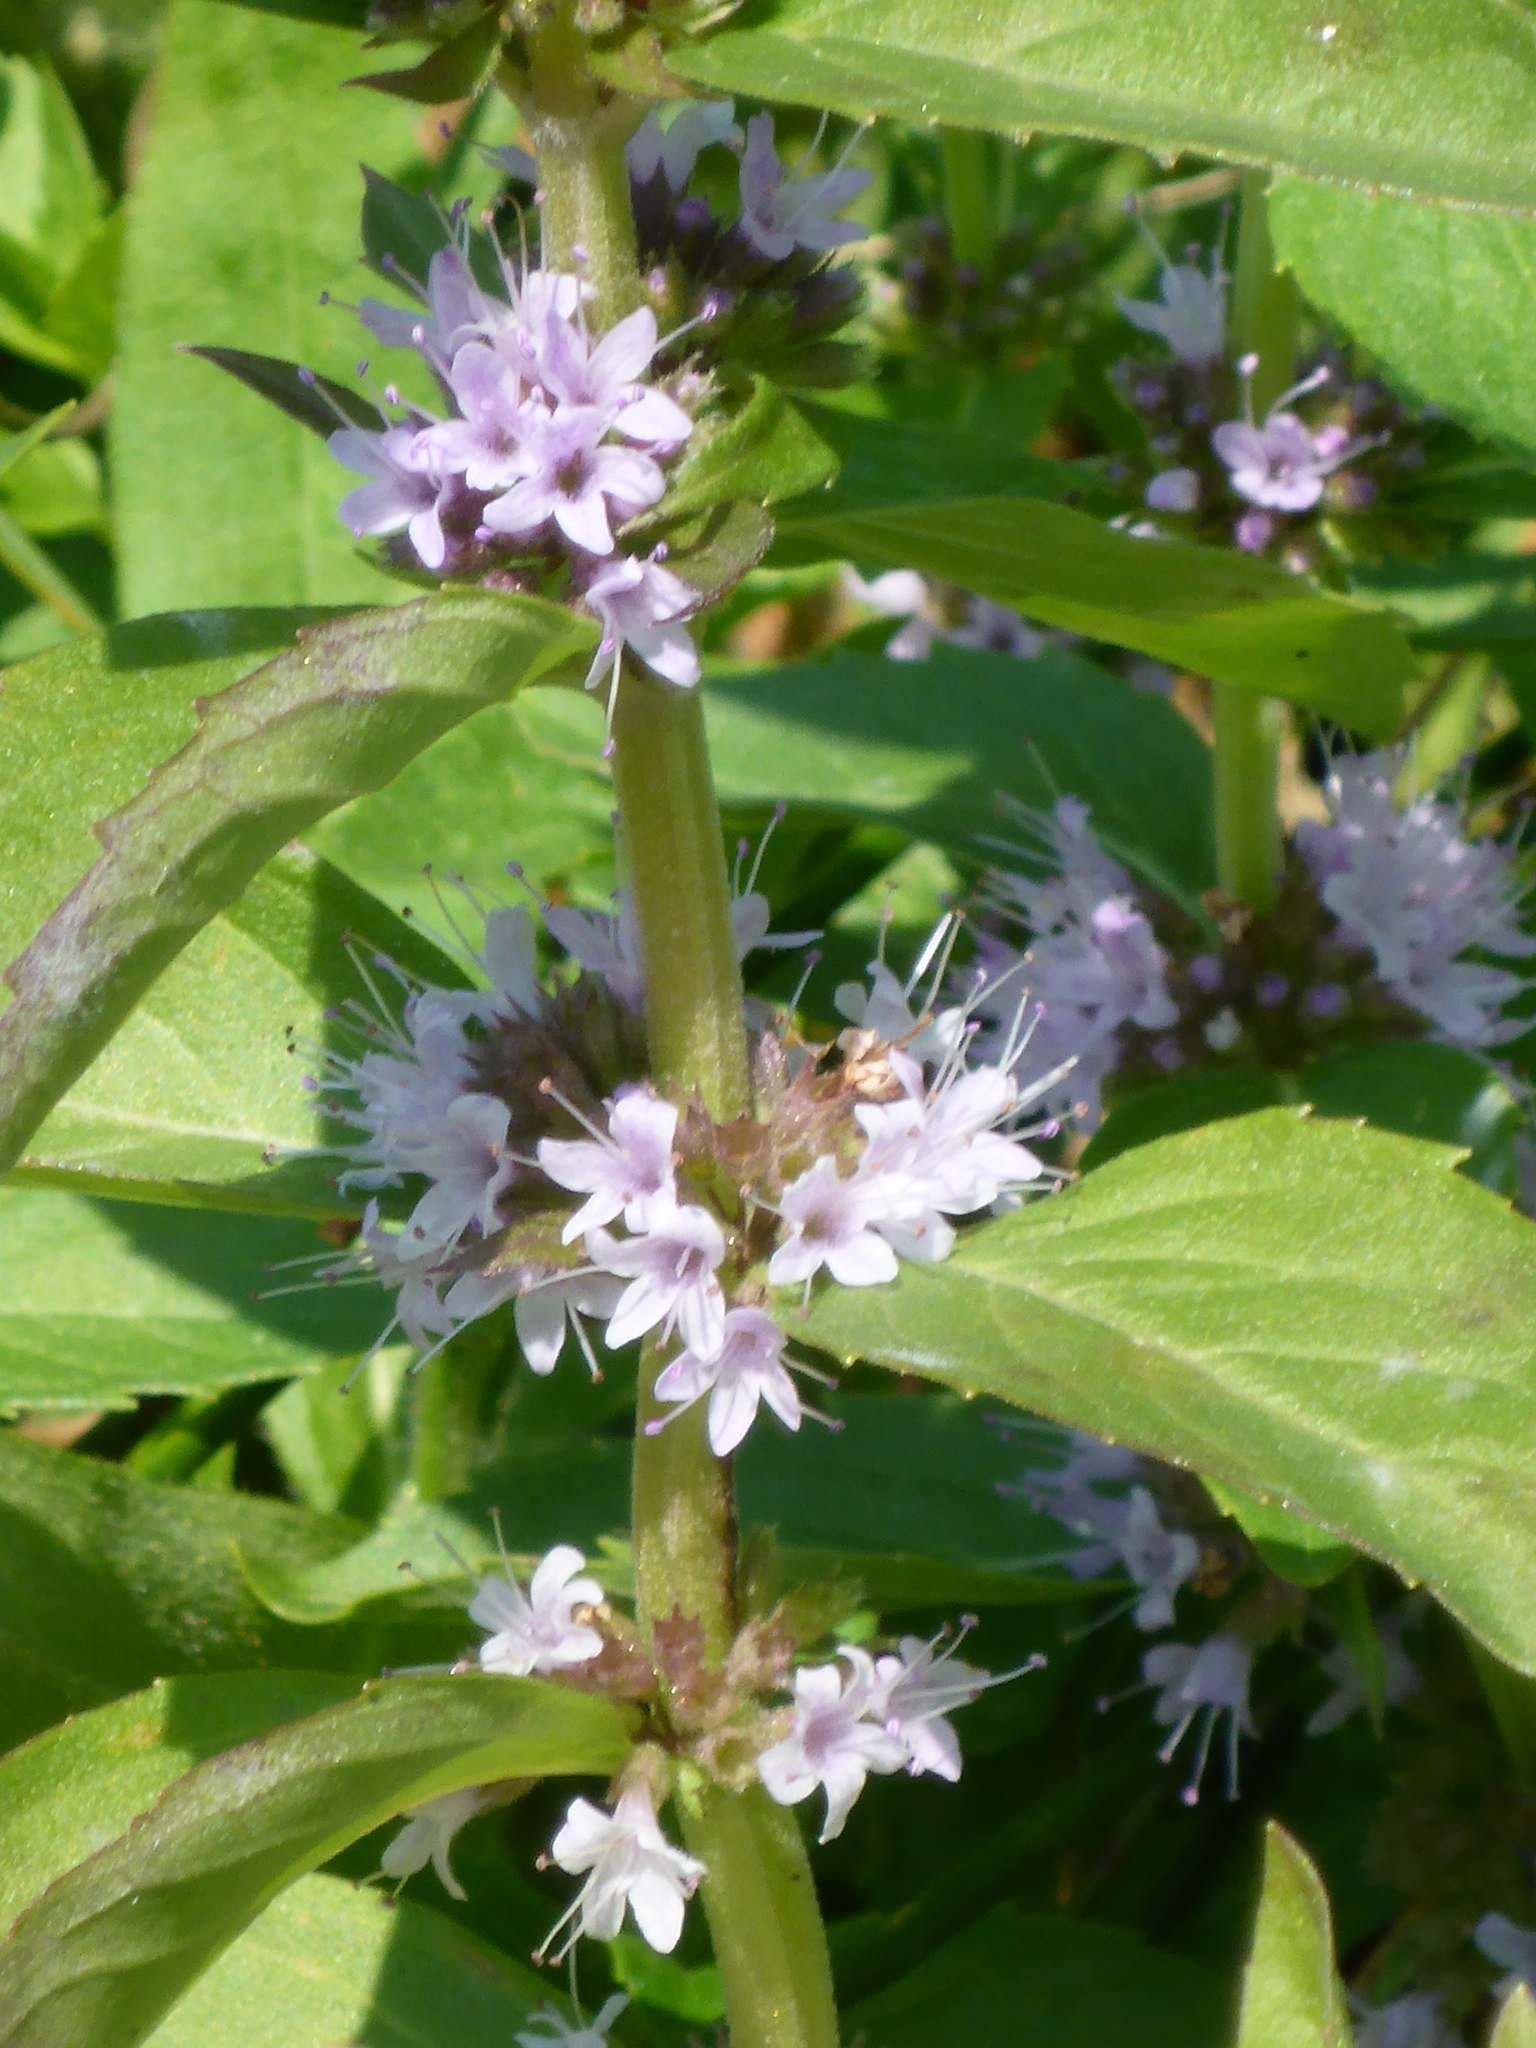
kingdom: Plantae
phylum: Tracheophyta
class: Magnoliopsida
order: Lamiales
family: Lamiaceae
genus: Mentha
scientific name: Mentha canadensis
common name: American corn mint
